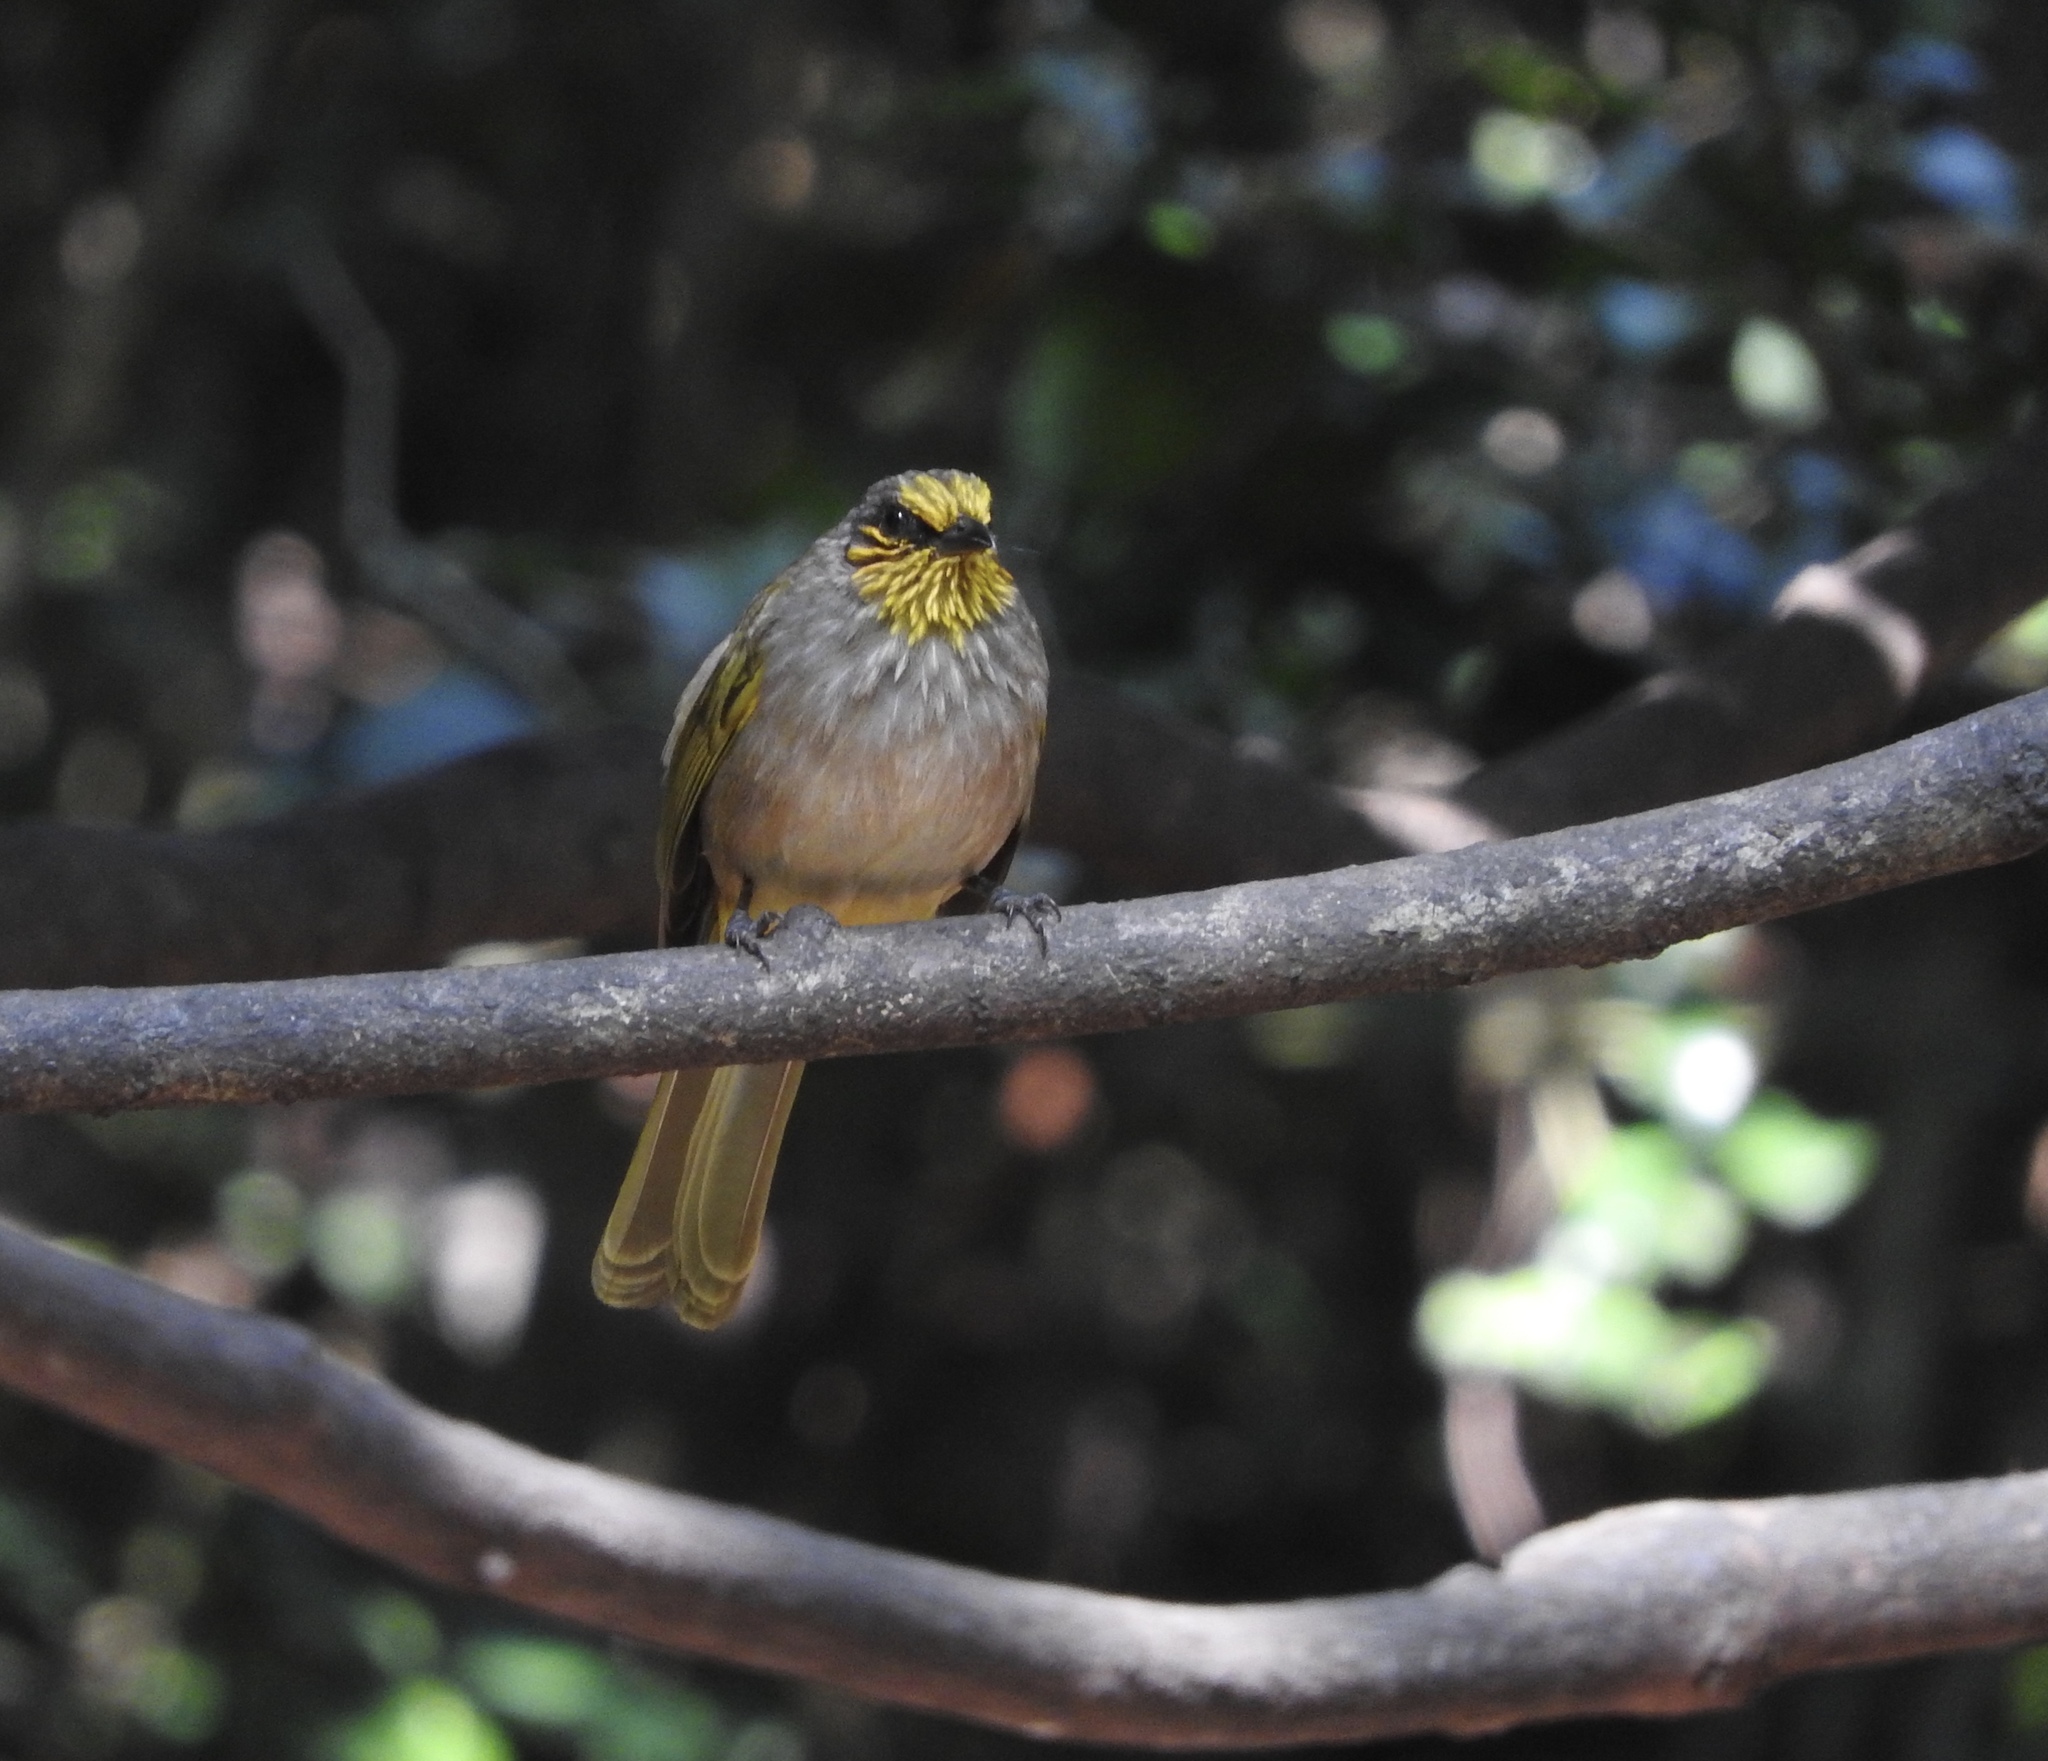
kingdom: Animalia
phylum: Chordata
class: Aves
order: Passeriformes
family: Pycnonotidae
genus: Pycnonotus
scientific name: Pycnonotus finlaysoni
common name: Stripe-throated bulbul
